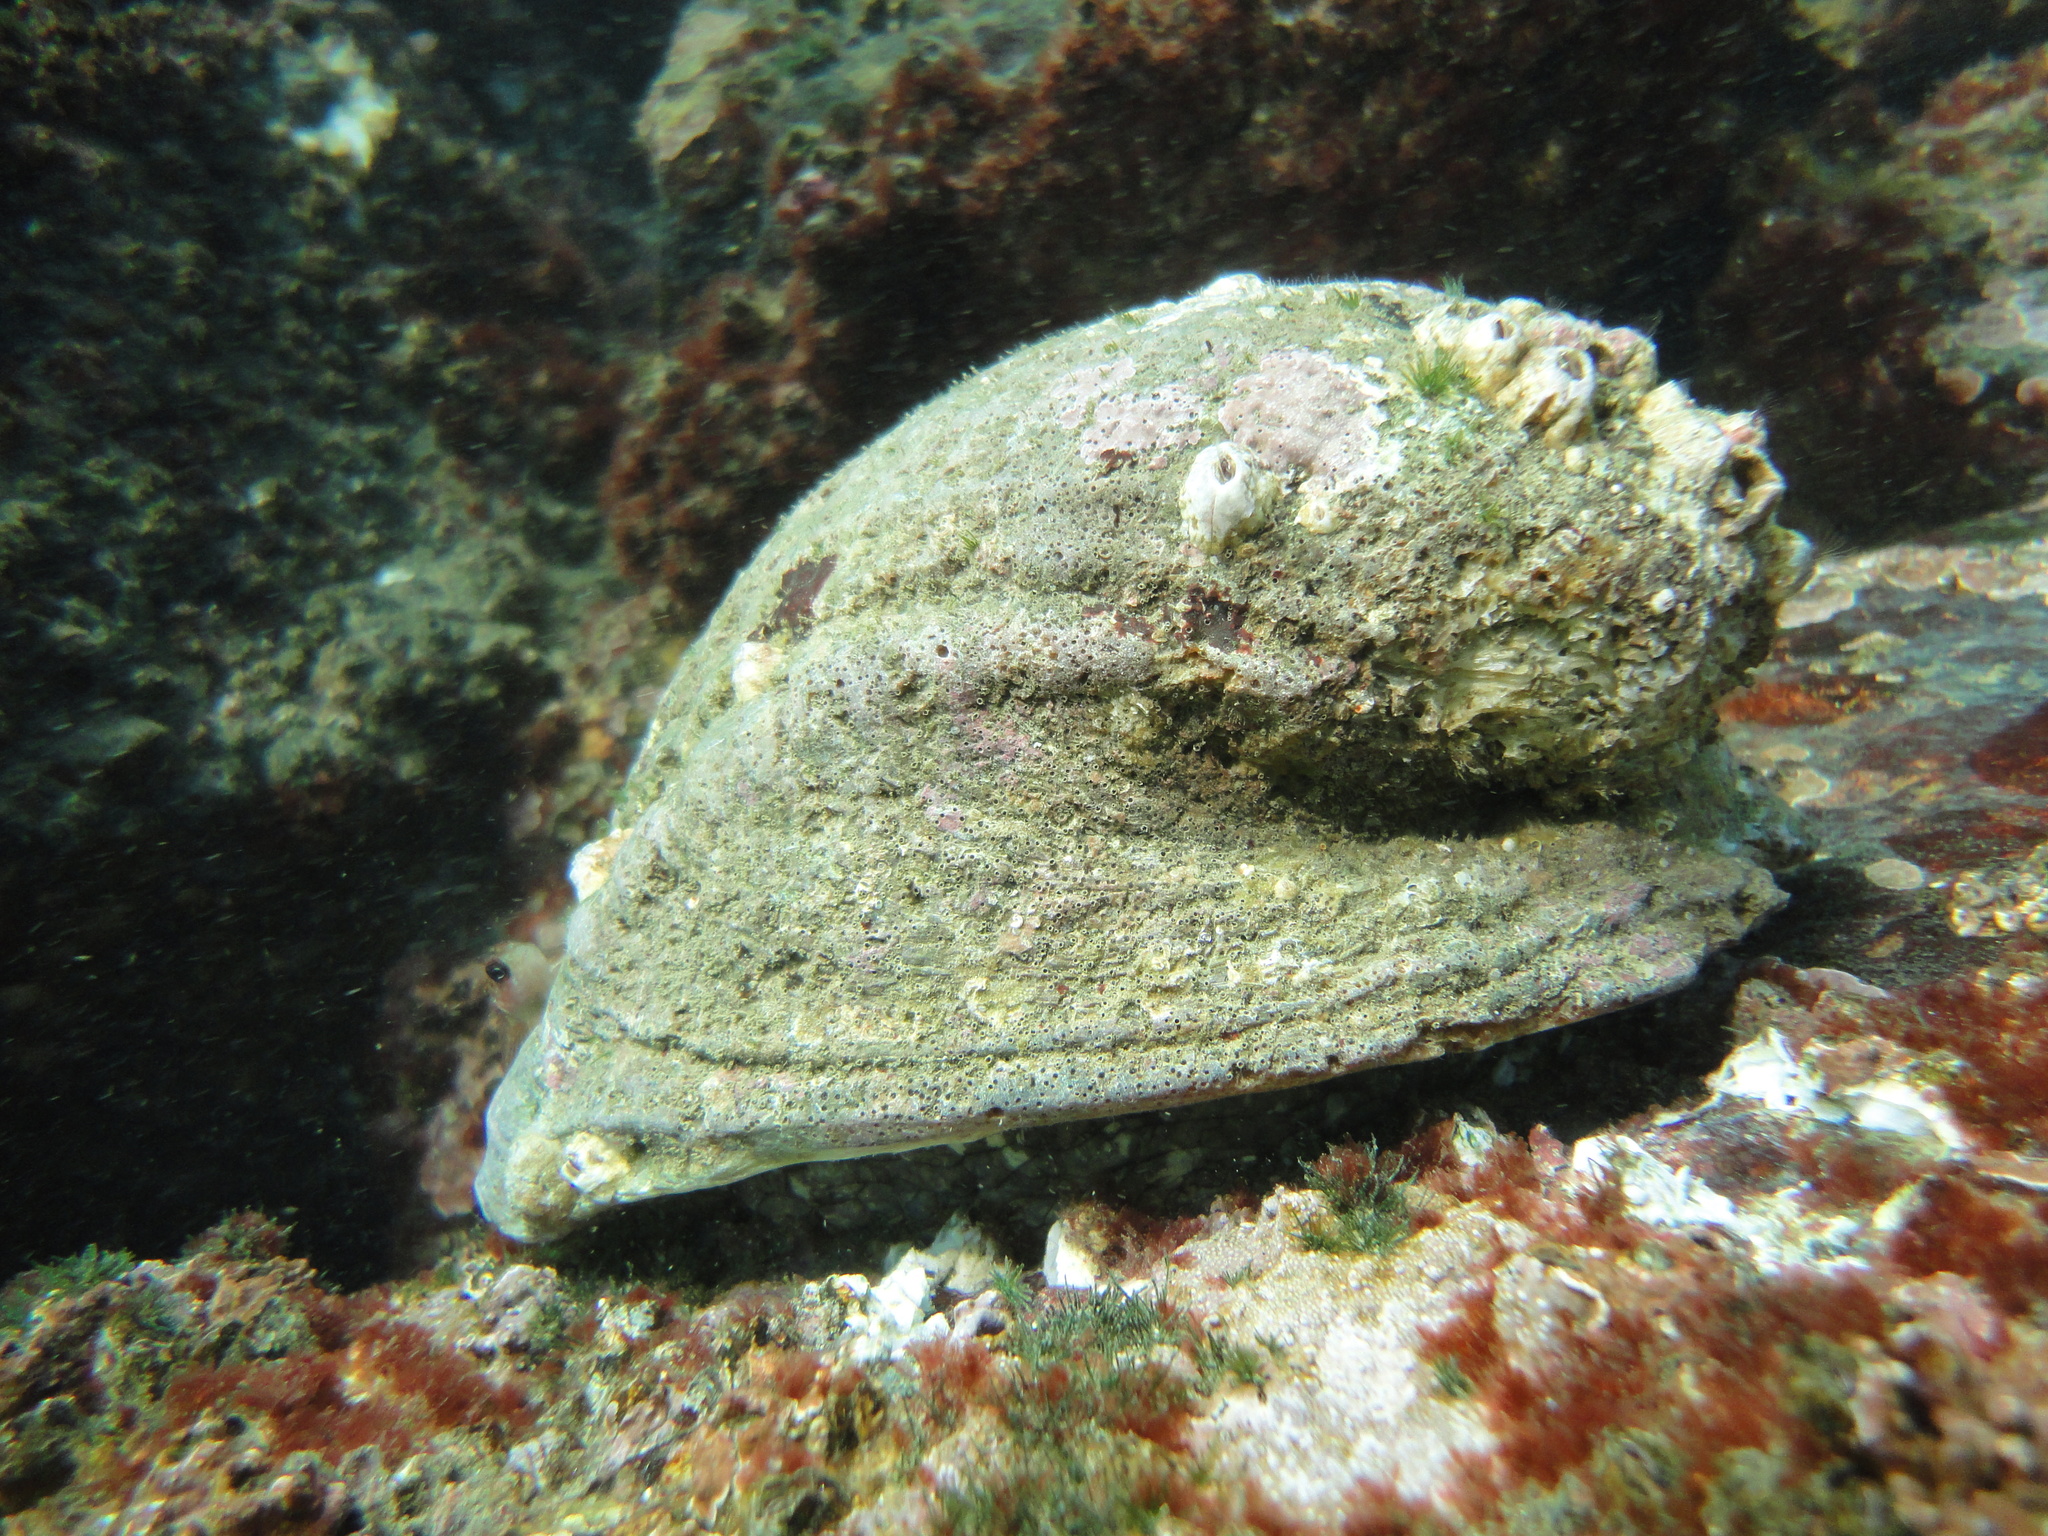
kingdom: Animalia
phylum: Mollusca
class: Gastropoda
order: Neogastropoda
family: Muricidae
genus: Concholepas
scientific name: Concholepas concholepas
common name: Chilean abalone
